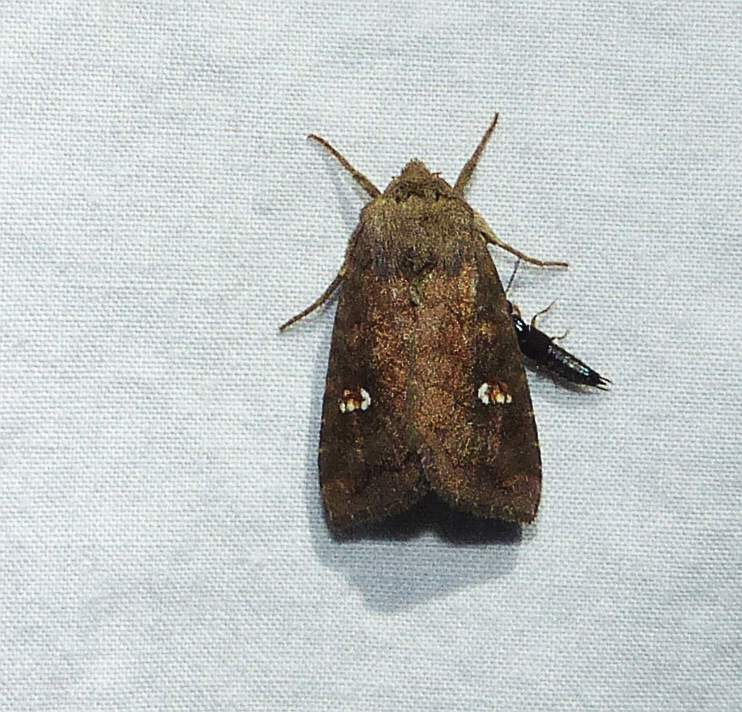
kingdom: Animalia
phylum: Arthropoda
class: Insecta
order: Lepidoptera
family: Noctuidae
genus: Tricholita
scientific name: Tricholita signata
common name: Signate quaker
